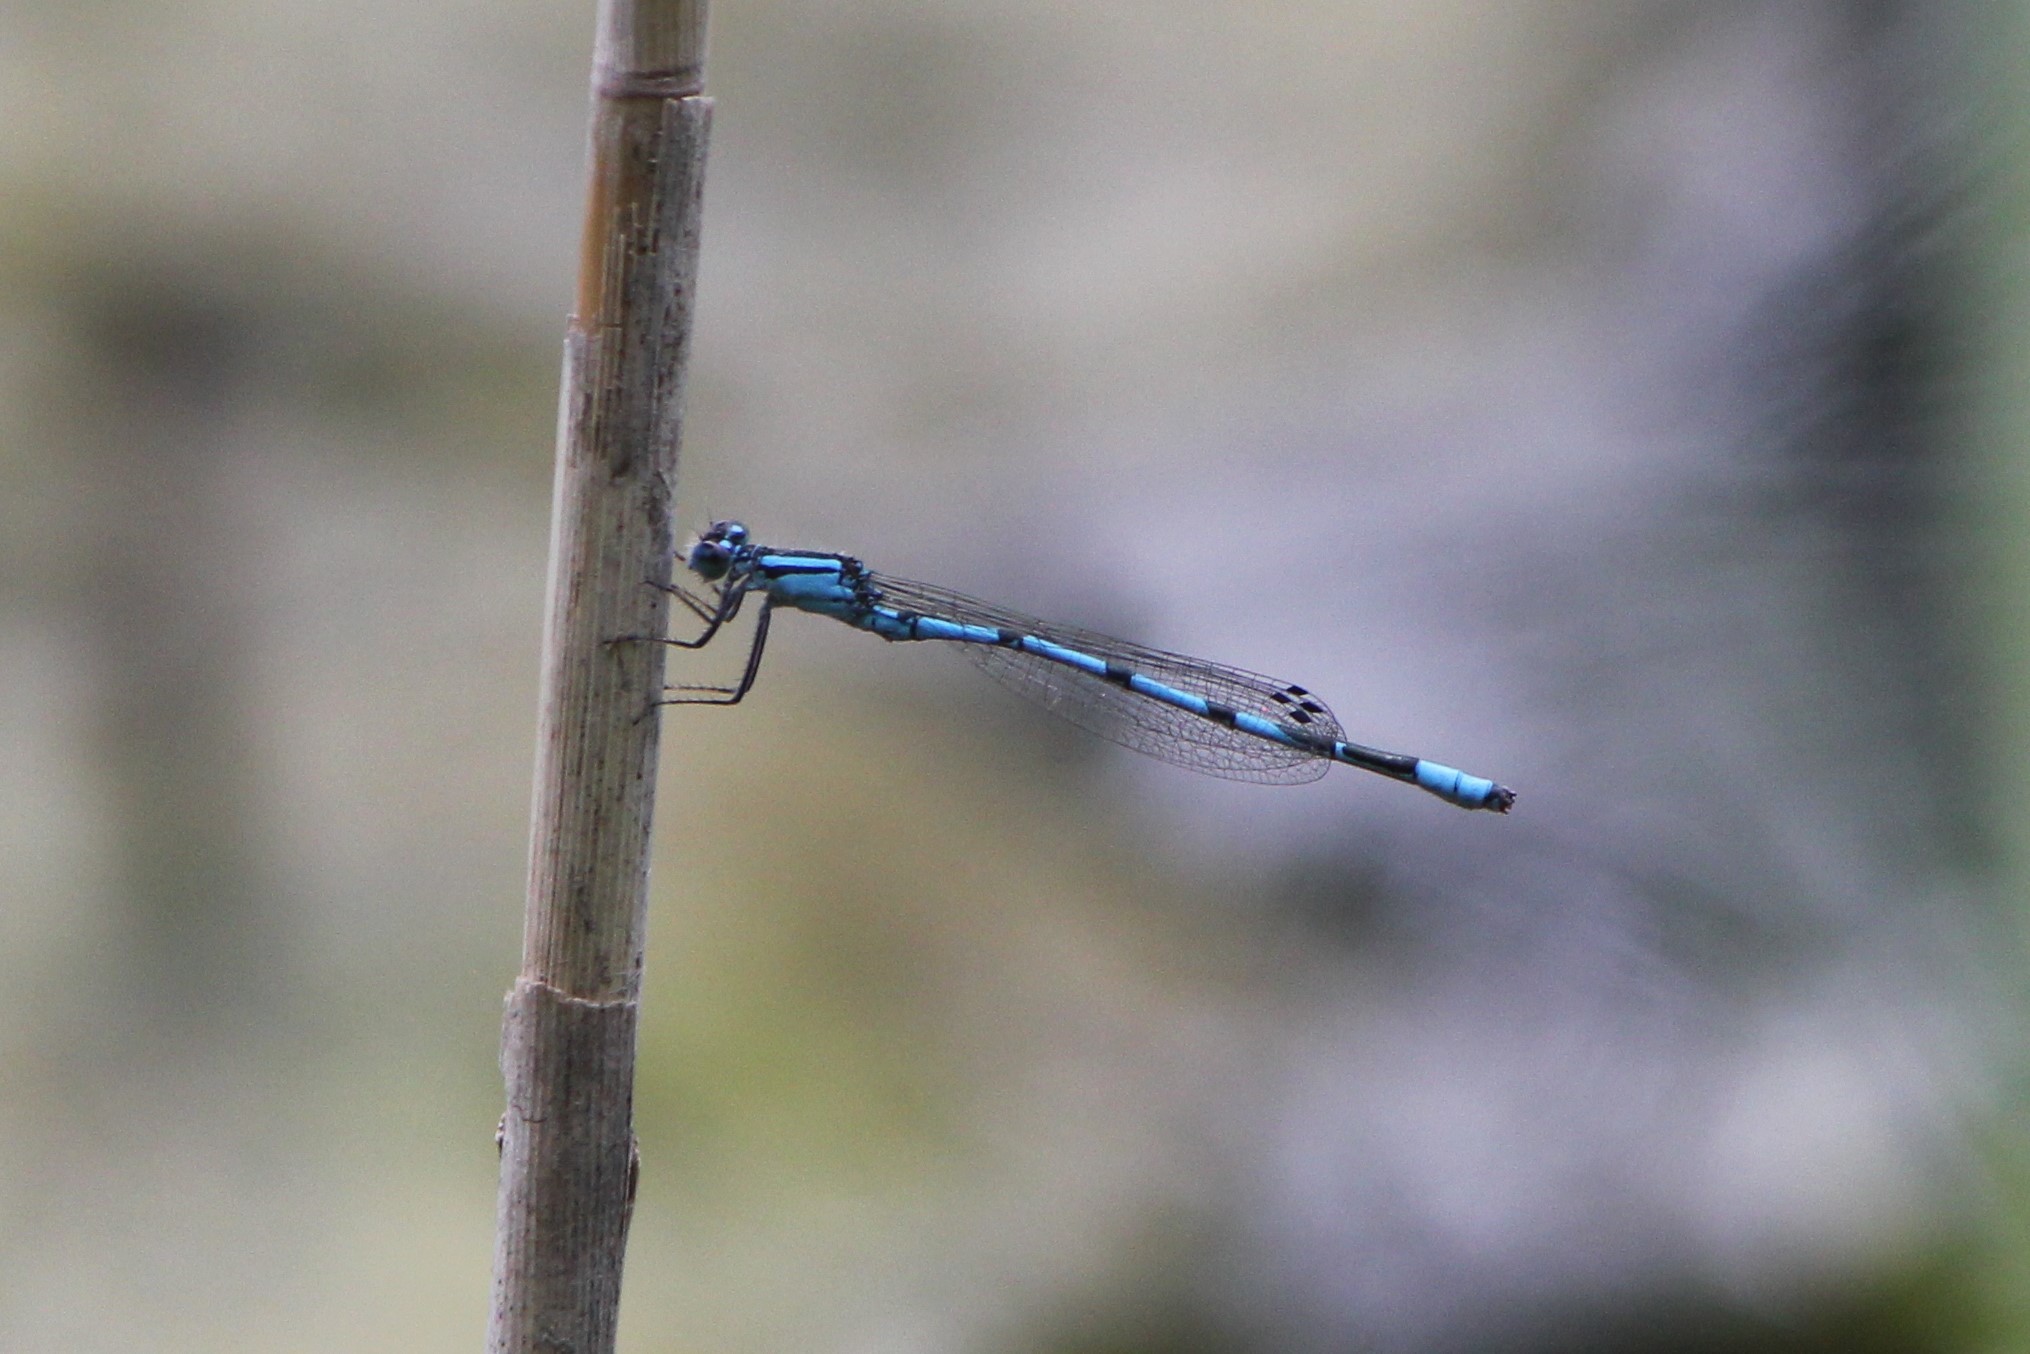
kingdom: Animalia
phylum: Arthropoda
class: Insecta
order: Odonata
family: Coenagrionidae
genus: Enallagma
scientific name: Enallagma ebrium
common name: Marsh bluet
